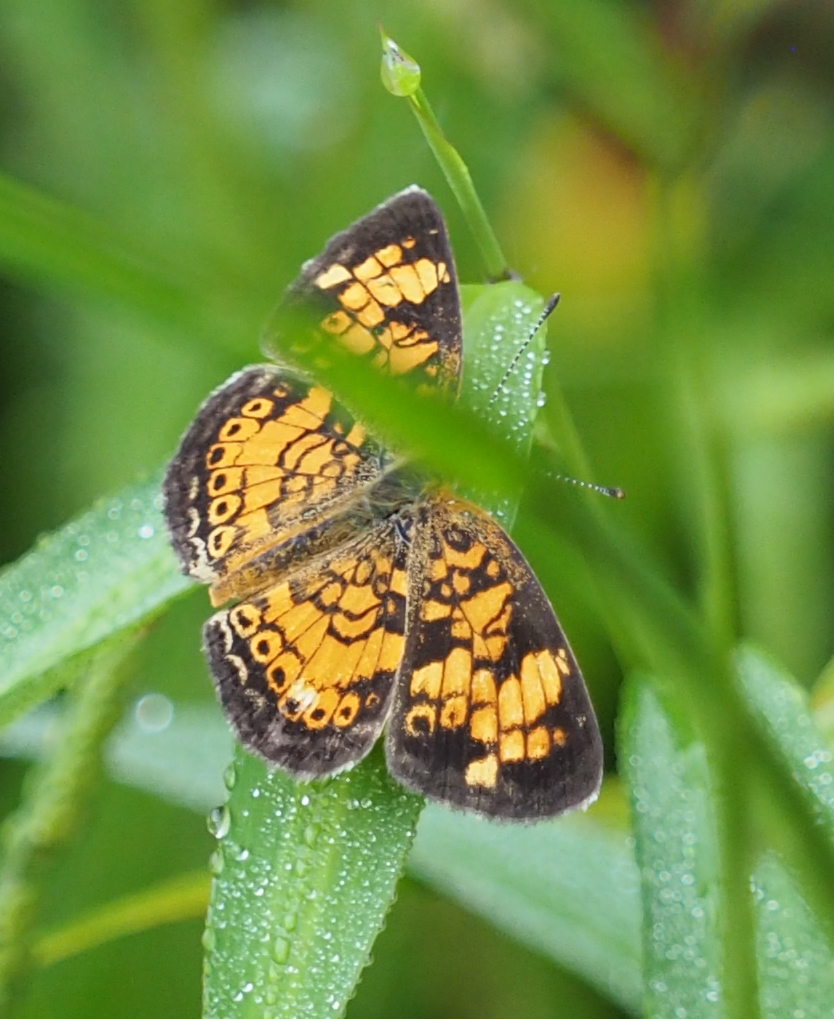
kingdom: Animalia
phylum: Arthropoda
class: Insecta
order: Lepidoptera
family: Nymphalidae
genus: Phyciodes
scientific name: Phyciodes tharos
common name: Pearl crescent
